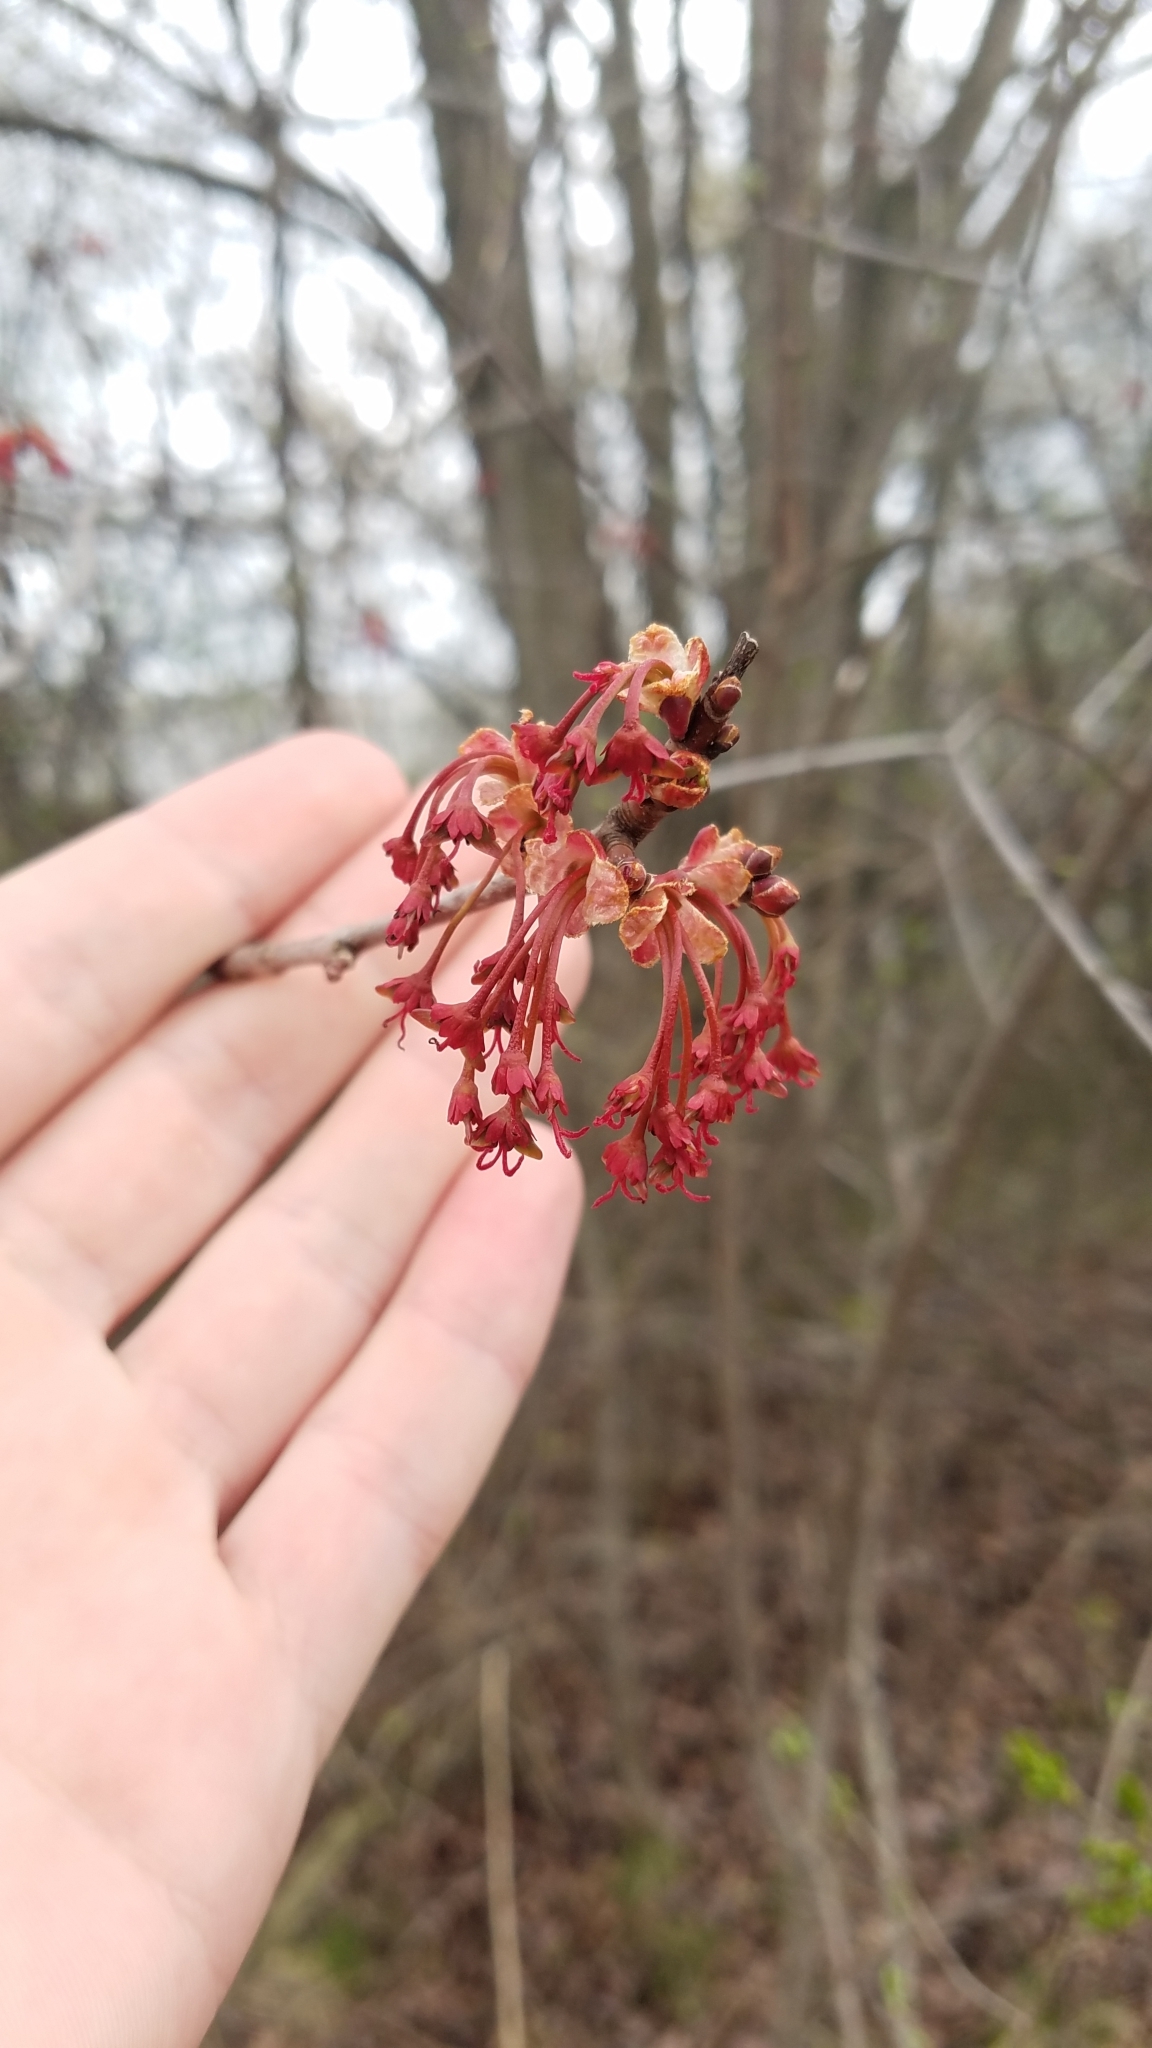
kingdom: Plantae
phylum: Tracheophyta
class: Magnoliopsida
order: Sapindales
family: Sapindaceae
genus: Acer
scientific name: Acer rubrum
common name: Red maple
